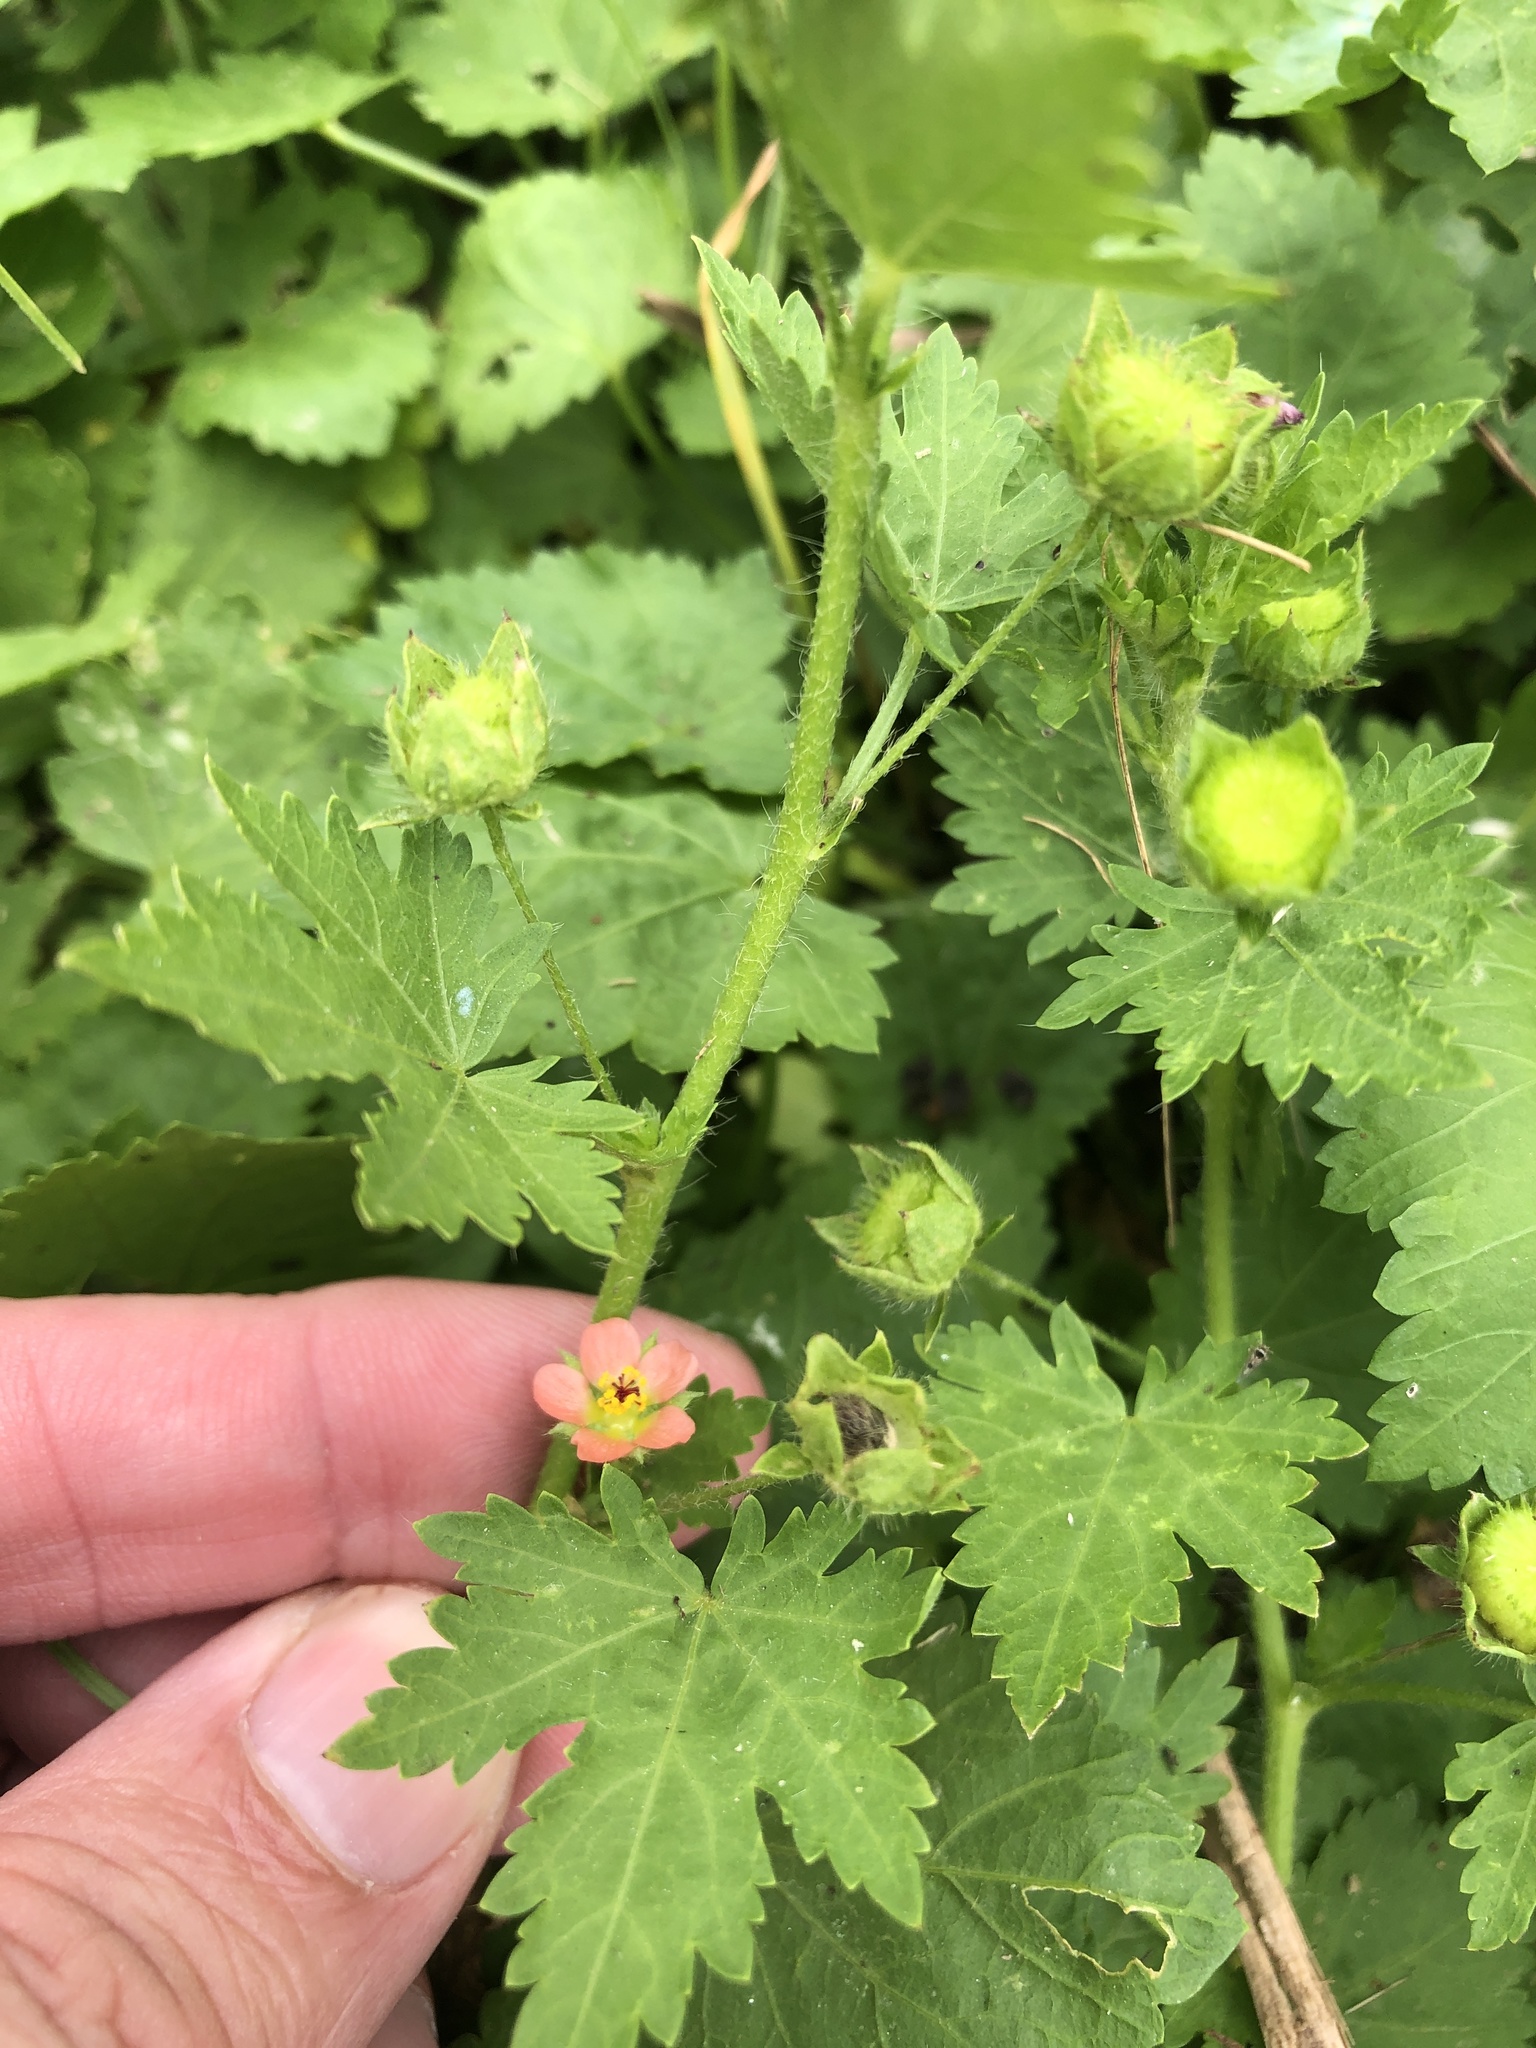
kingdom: Plantae
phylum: Tracheophyta
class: Magnoliopsida
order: Malvales
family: Malvaceae
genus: Modiola
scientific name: Modiola caroliniana
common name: Carolina bristlemallow
